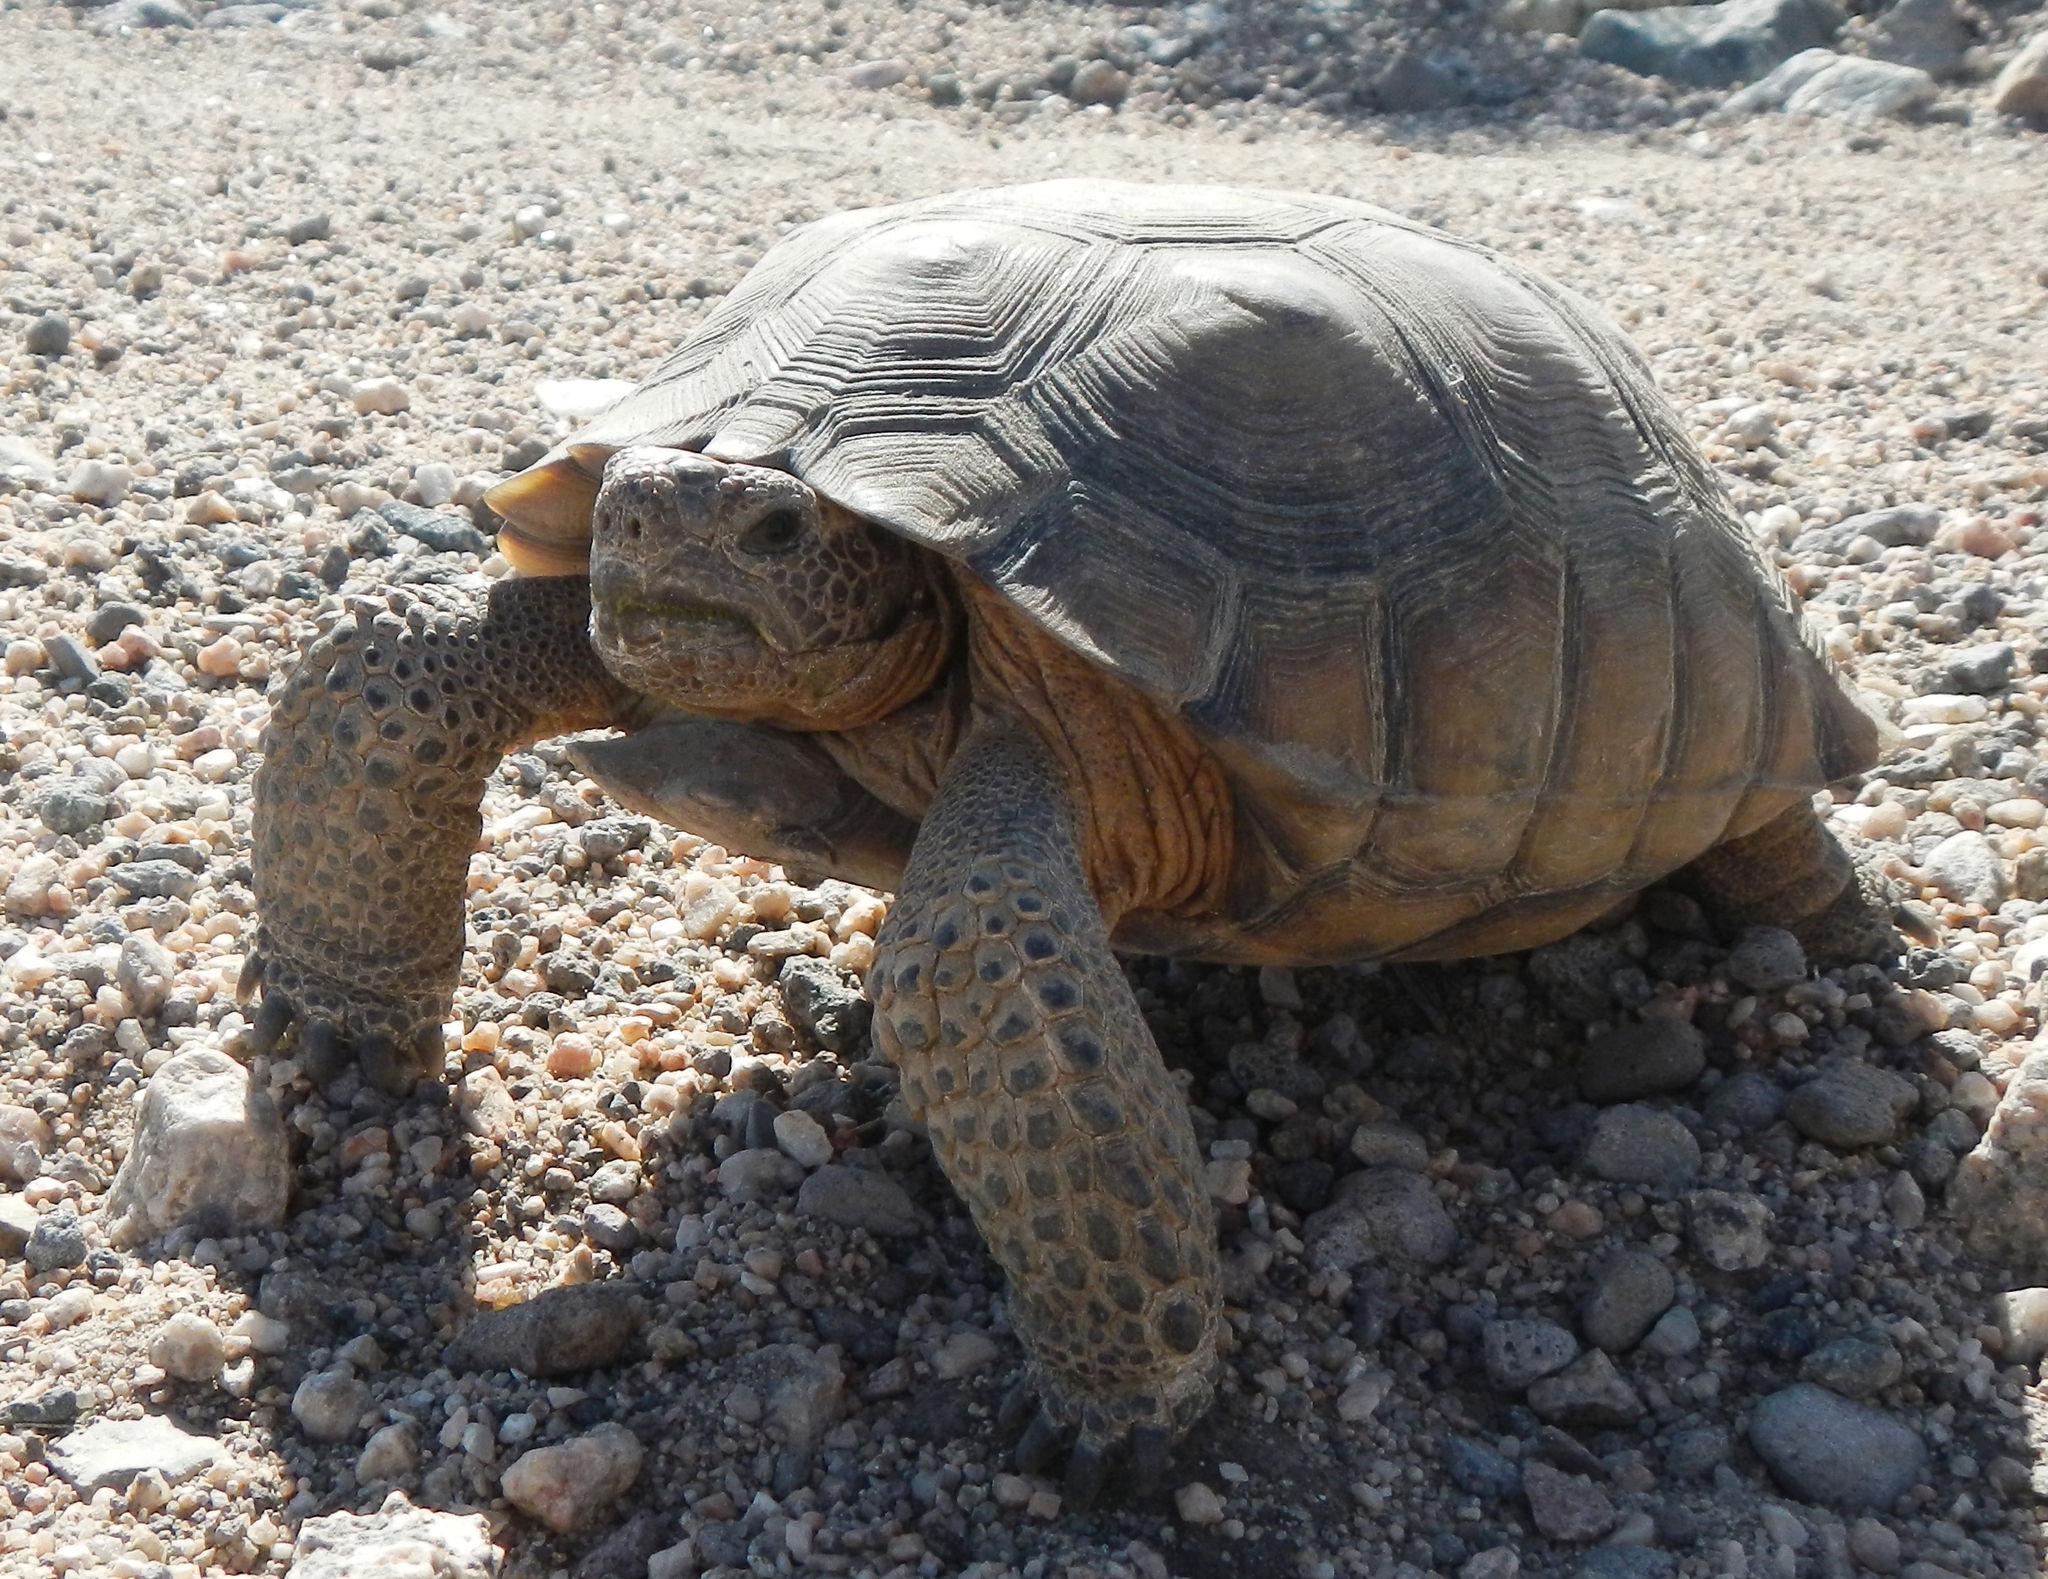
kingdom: Animalia
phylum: Chordata
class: Testudines
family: Testudinidae
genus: Gopherus
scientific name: Gopherus agassizii
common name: Mojave desert tortoise
